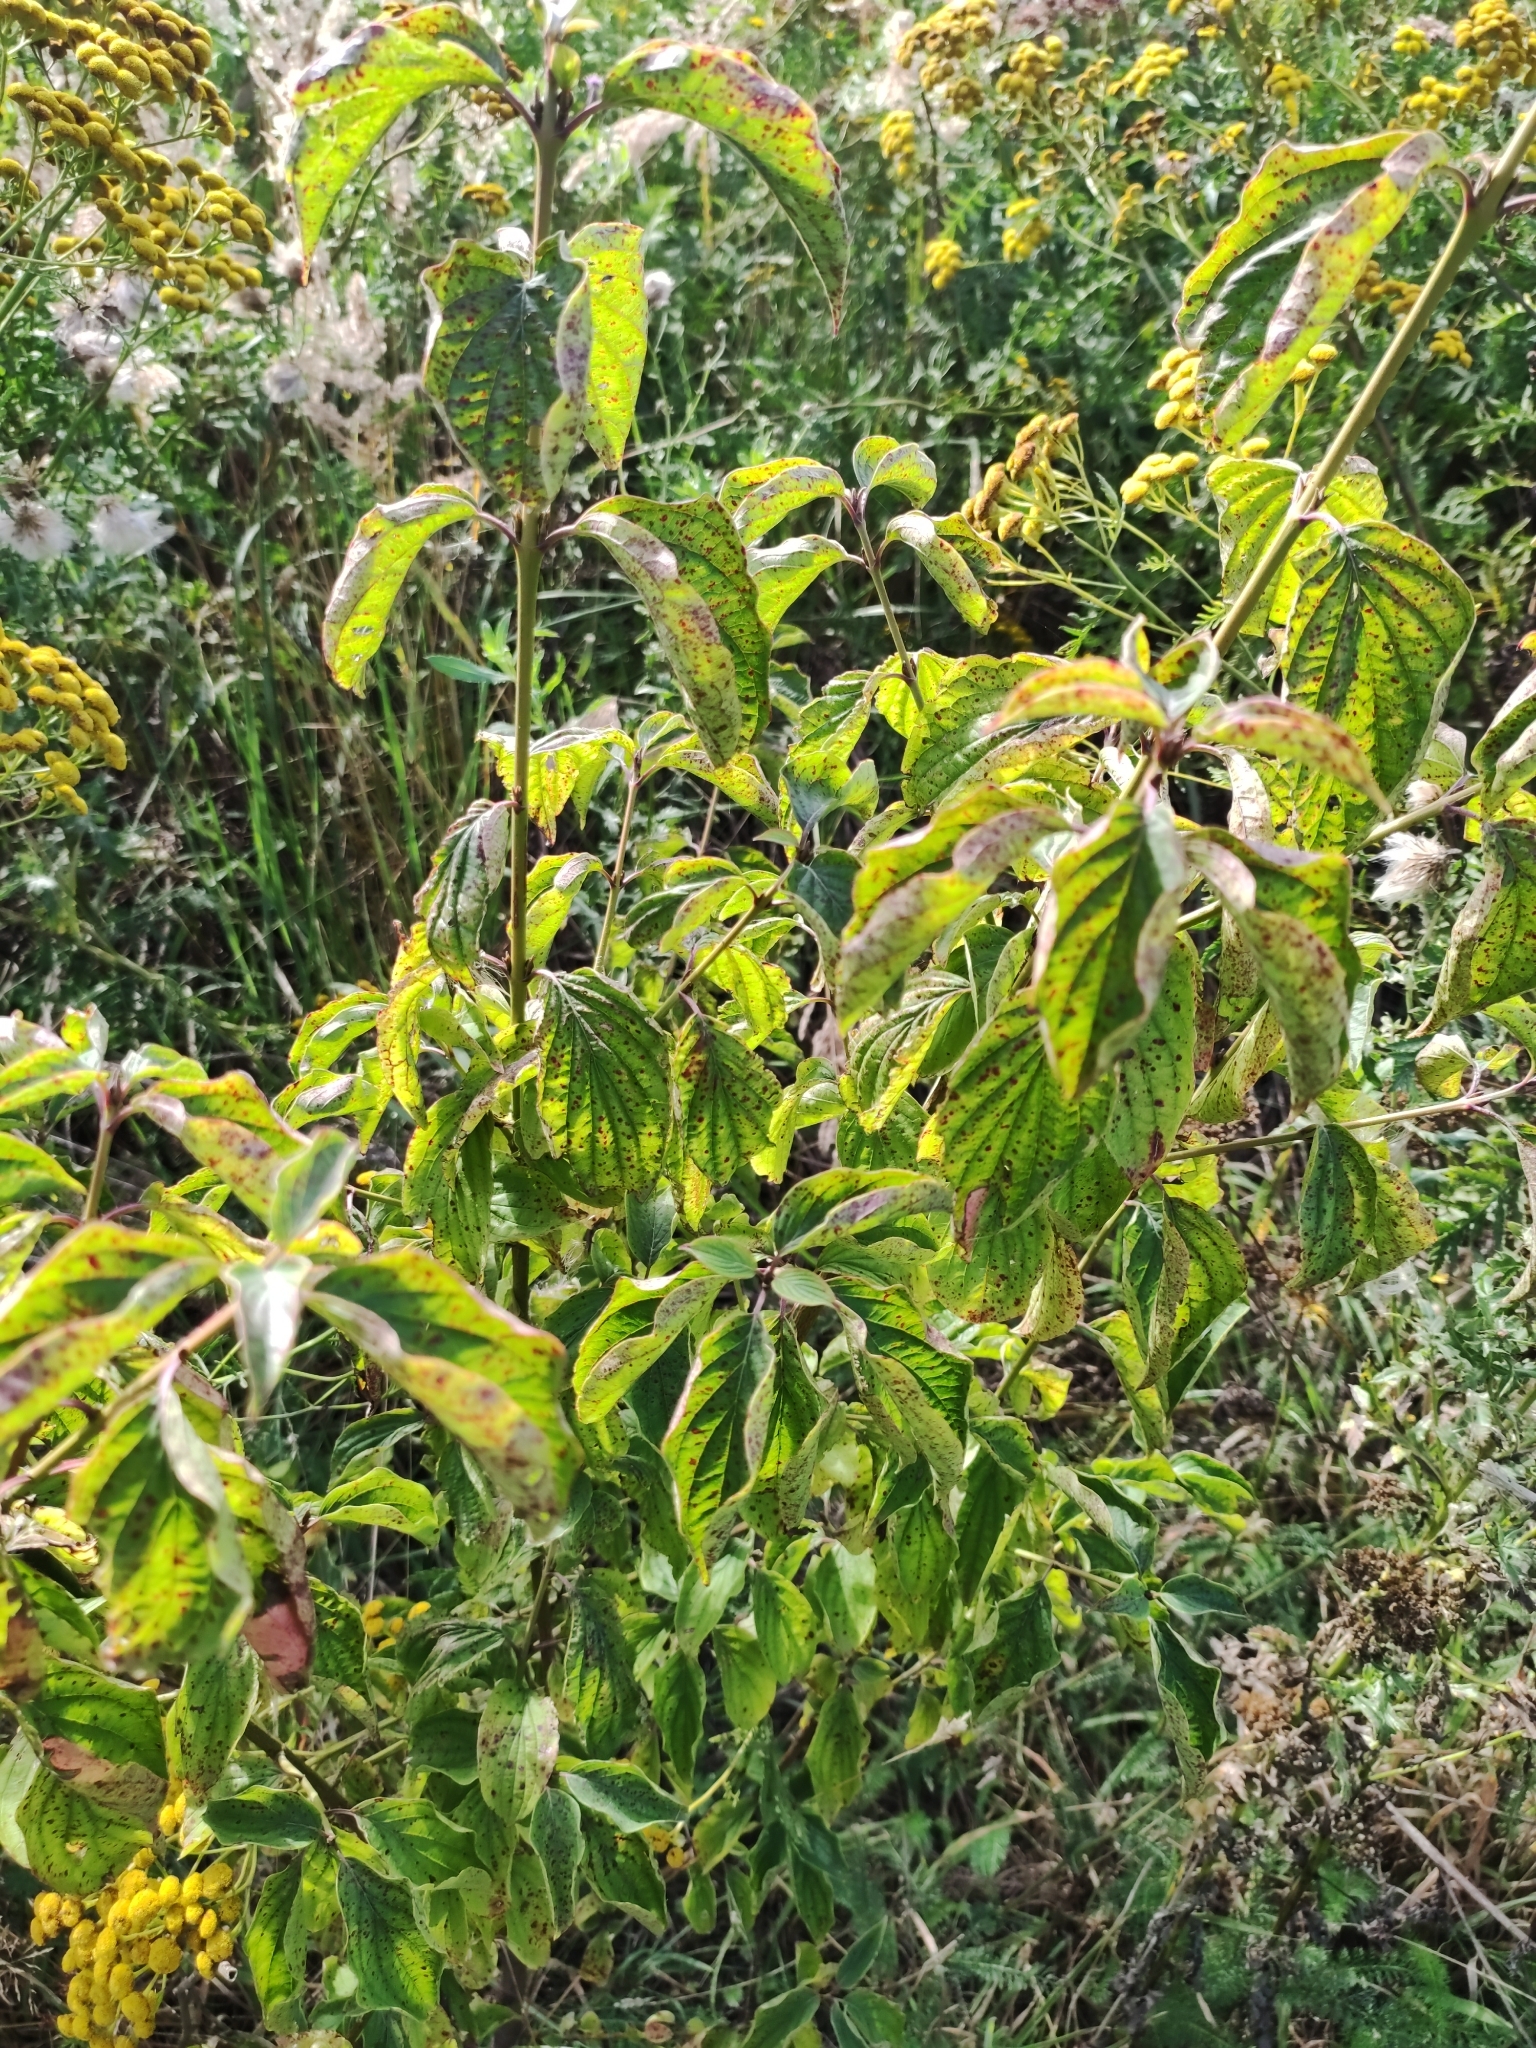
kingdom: Plantae
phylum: Tracheophyta
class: Magnoliopsida
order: Cornales
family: Cornaceae
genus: Cornus
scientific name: Cornus sanguinea
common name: Dogwood
